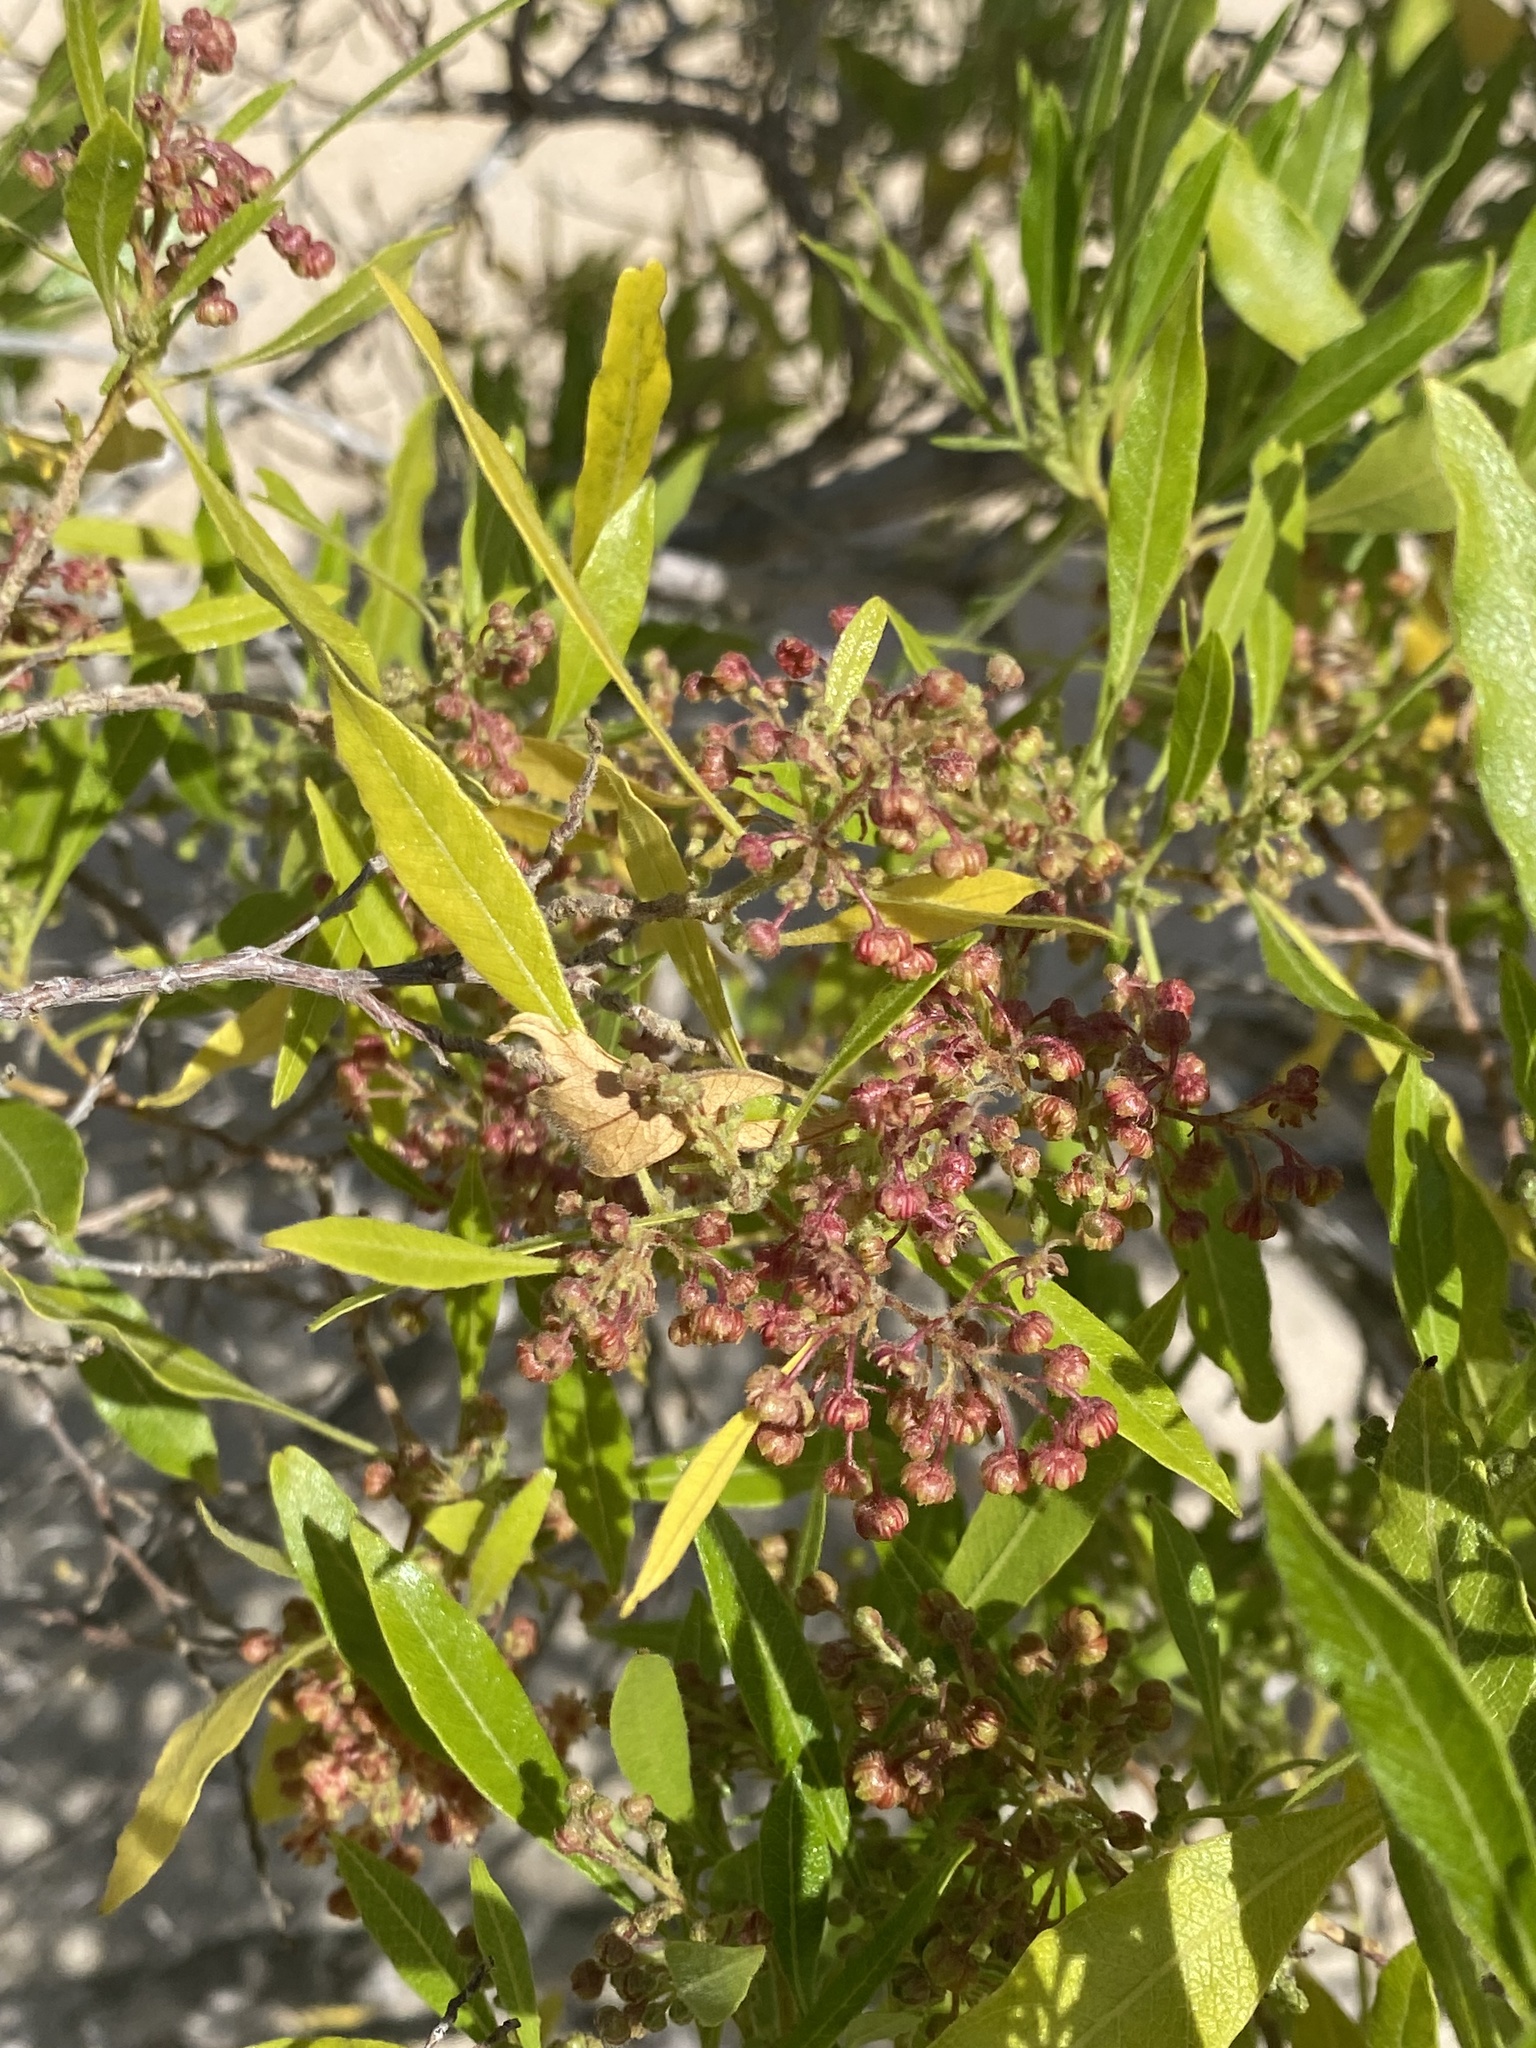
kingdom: Plantae
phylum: Tracheophyta
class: Magnoliopsida
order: Sapindales
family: Sapindaceae
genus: Dodonaea
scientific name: Dodonaea viscosa
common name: Hopbush
